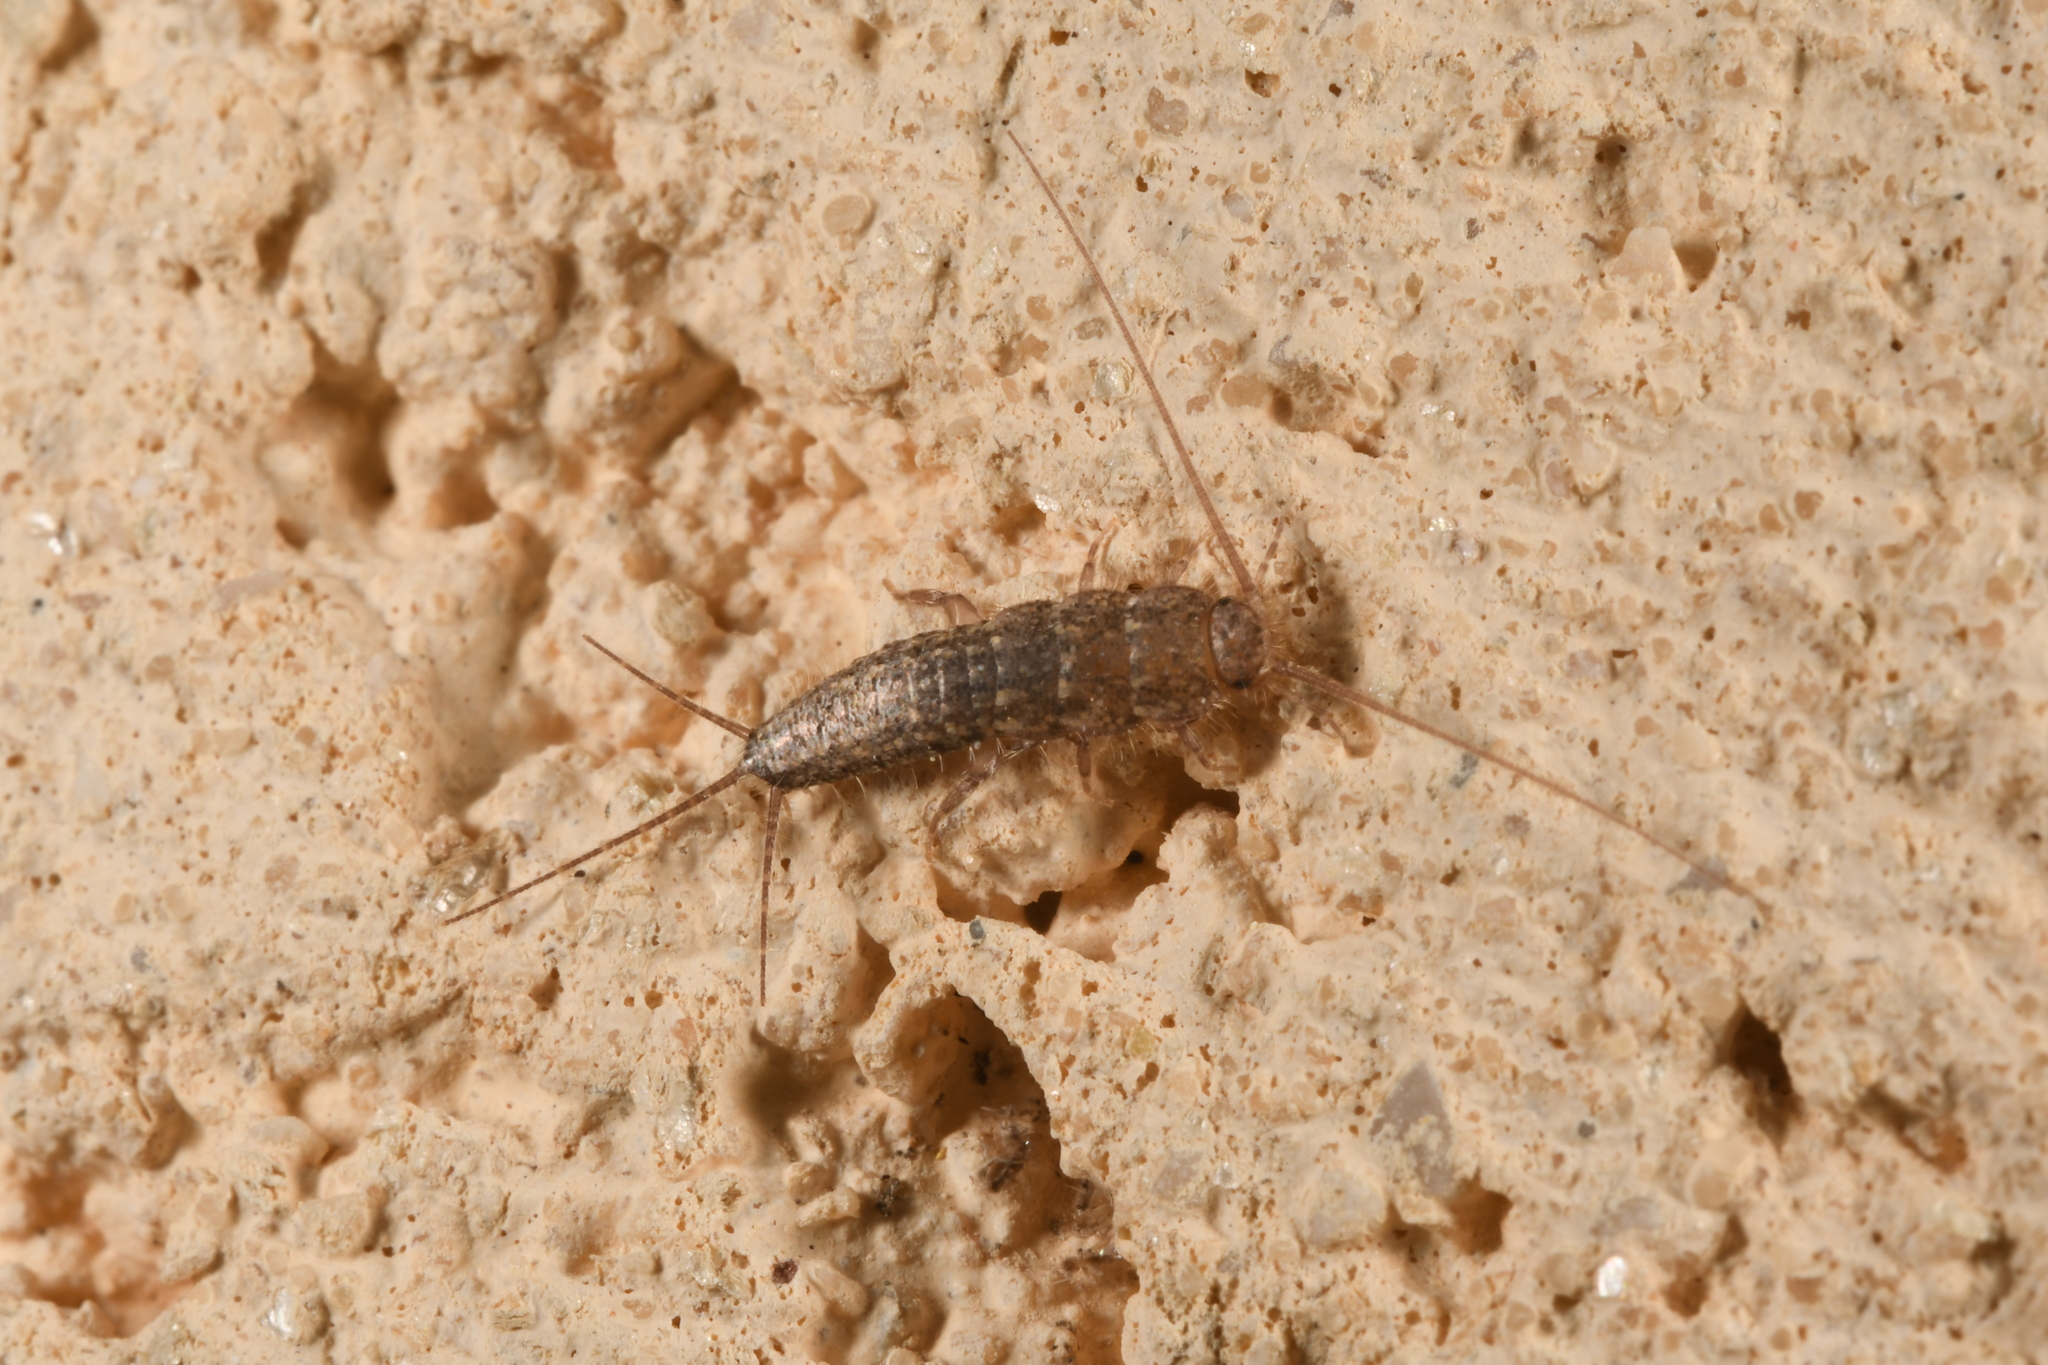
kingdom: Animalia
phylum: Arthropoda
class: Insecta
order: Zygentoma
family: Lepismatidae
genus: Ctenolepisma
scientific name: Ctenolepisma lineata
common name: Four-lined silverfish
